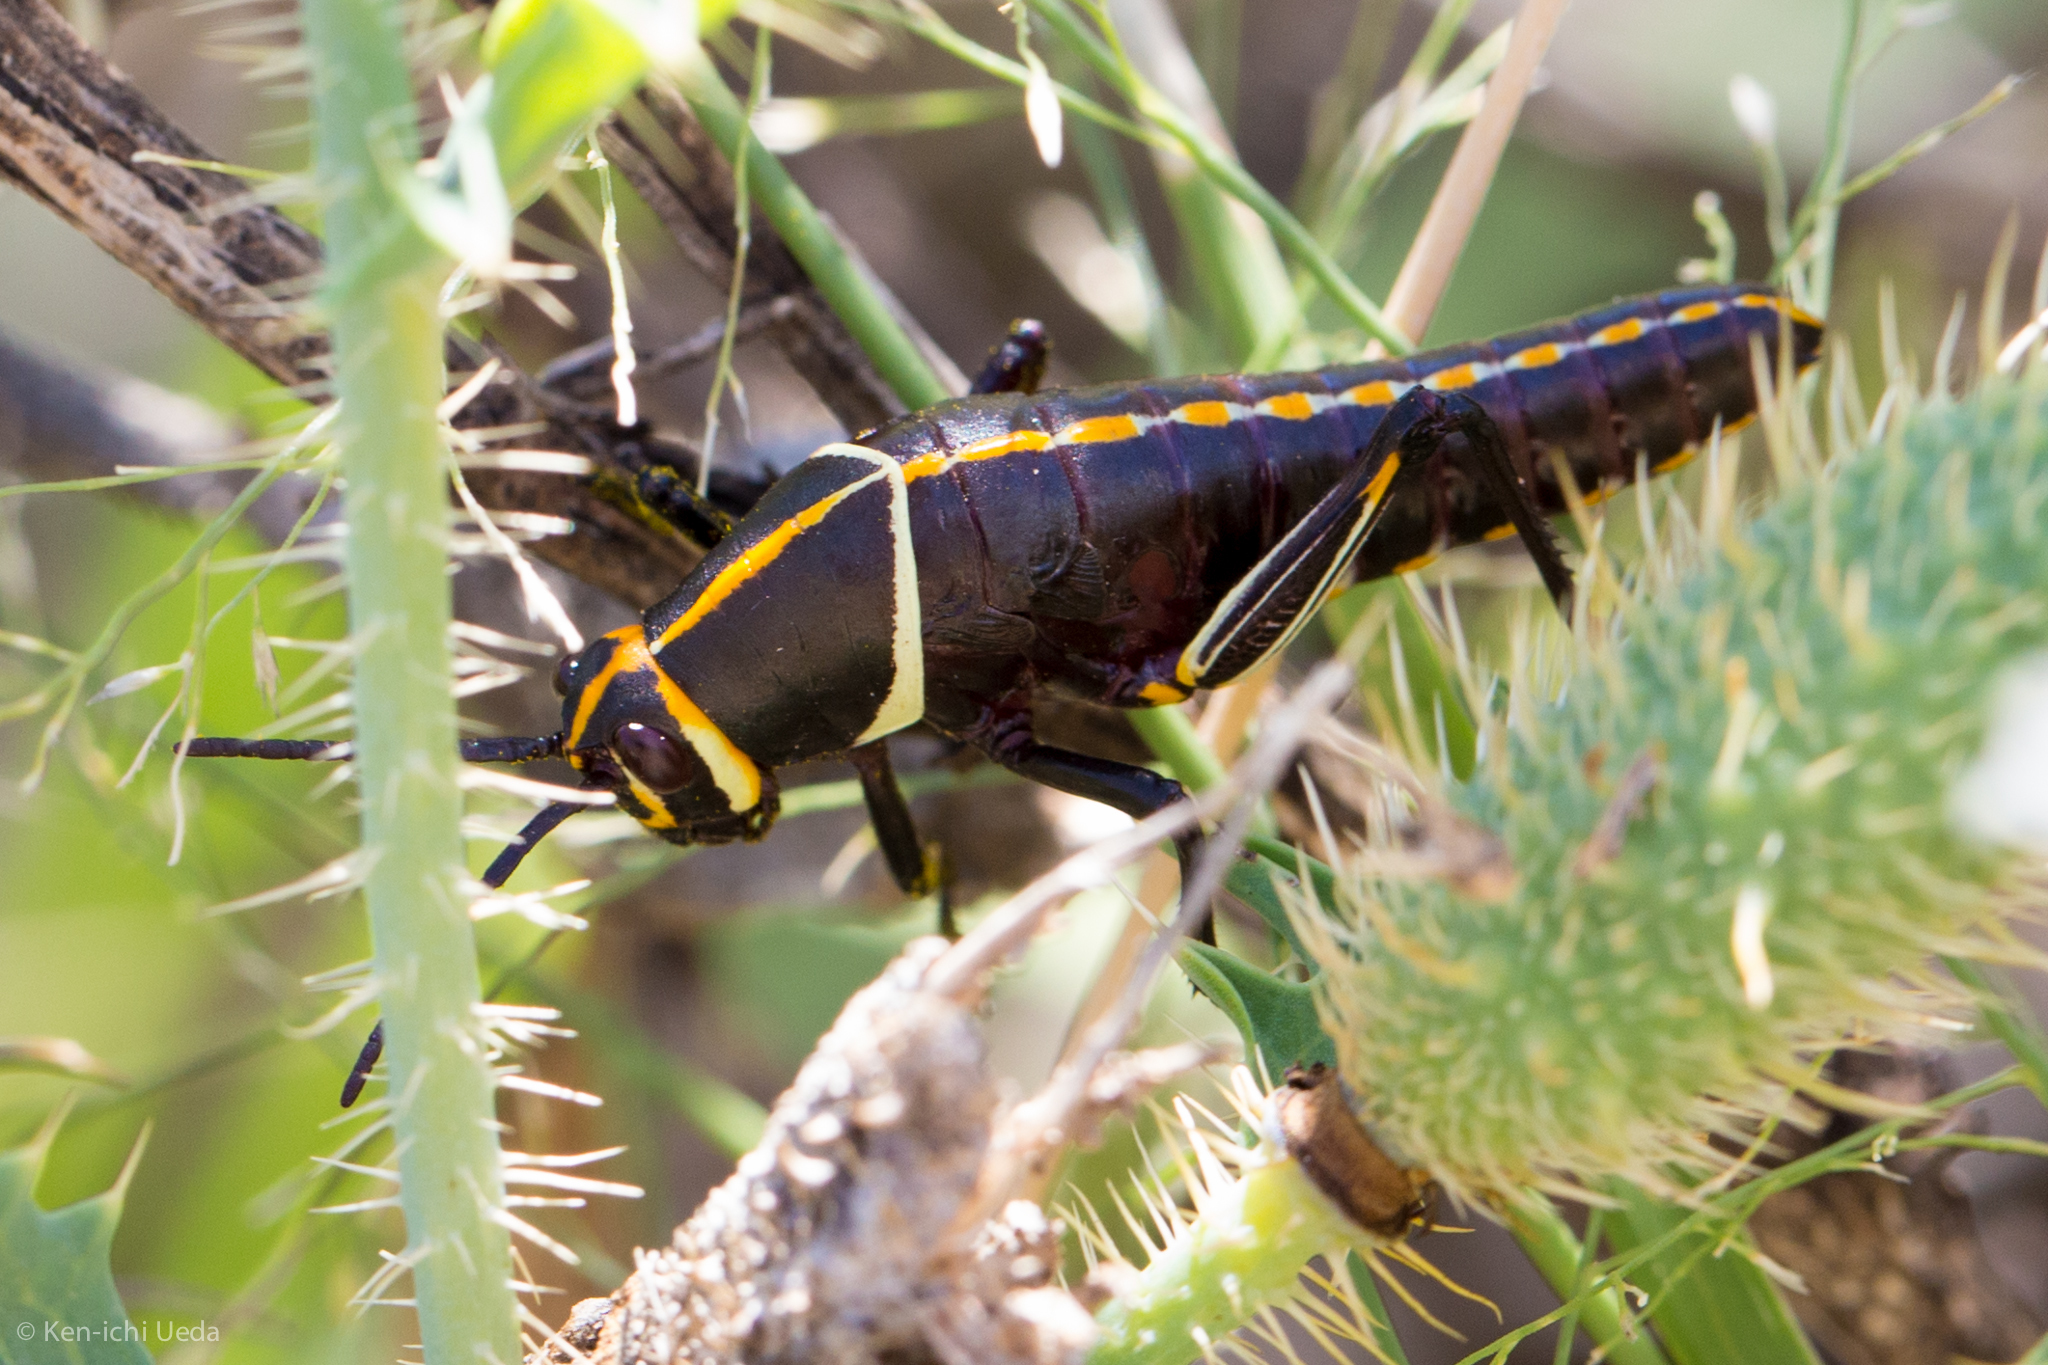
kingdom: Animalia
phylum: Arthropoda
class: Insecta
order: Orthoptera
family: Romaleidae
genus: Romalea
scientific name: Romalea
